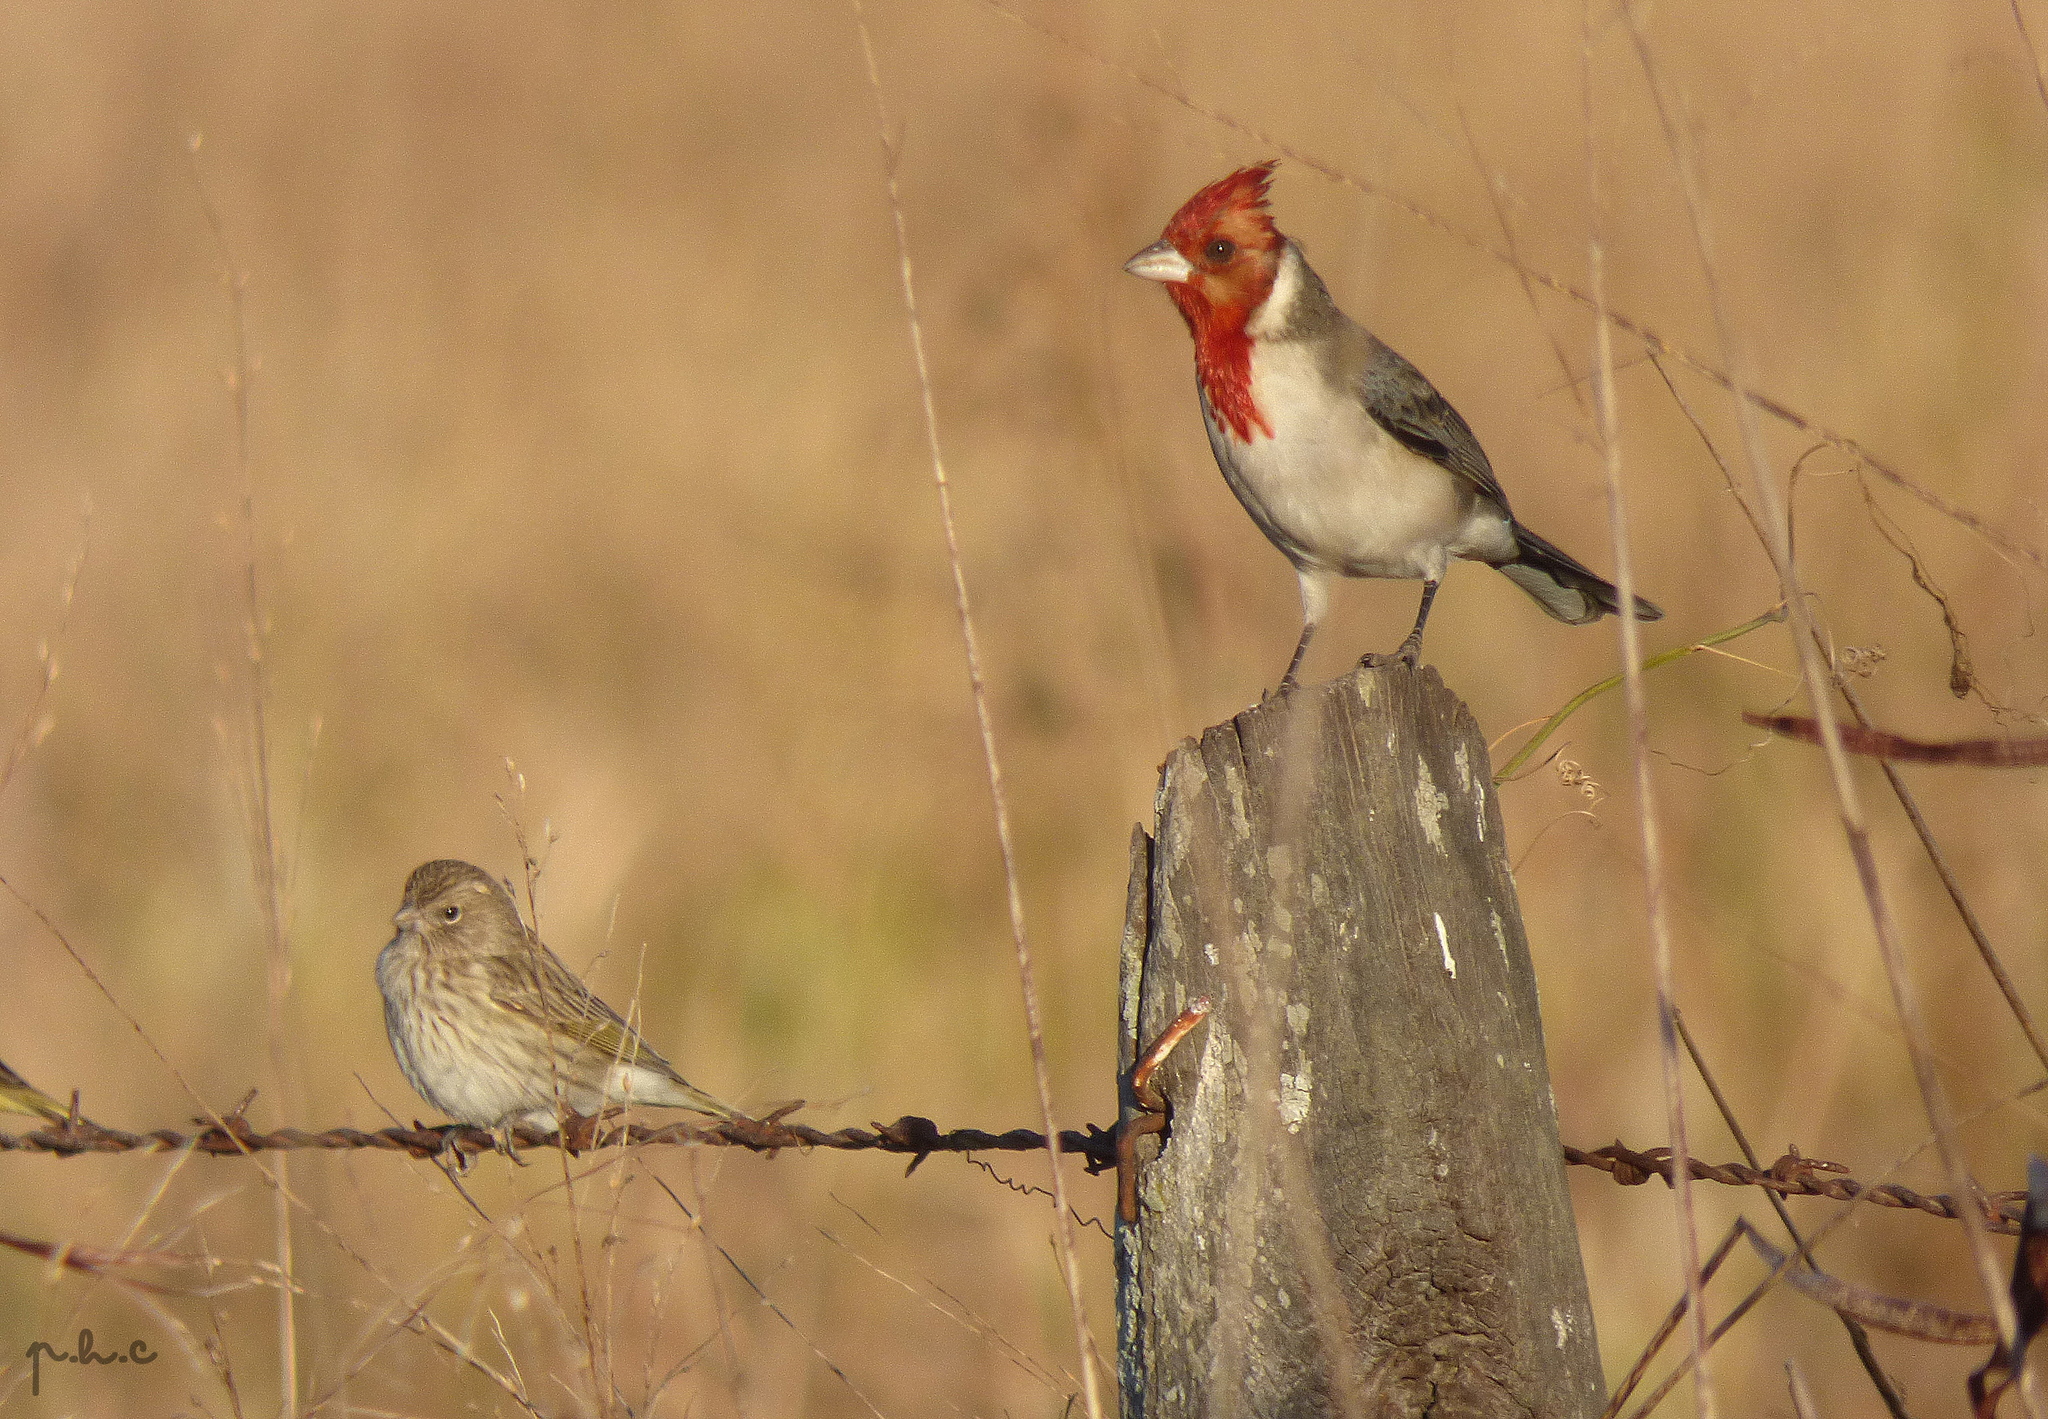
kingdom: Animalia
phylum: Chordata
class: Aves
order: Passeriformes
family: Thraupidae
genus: Paroaria
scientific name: Paroaria coronata
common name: Red-crested cardinal
